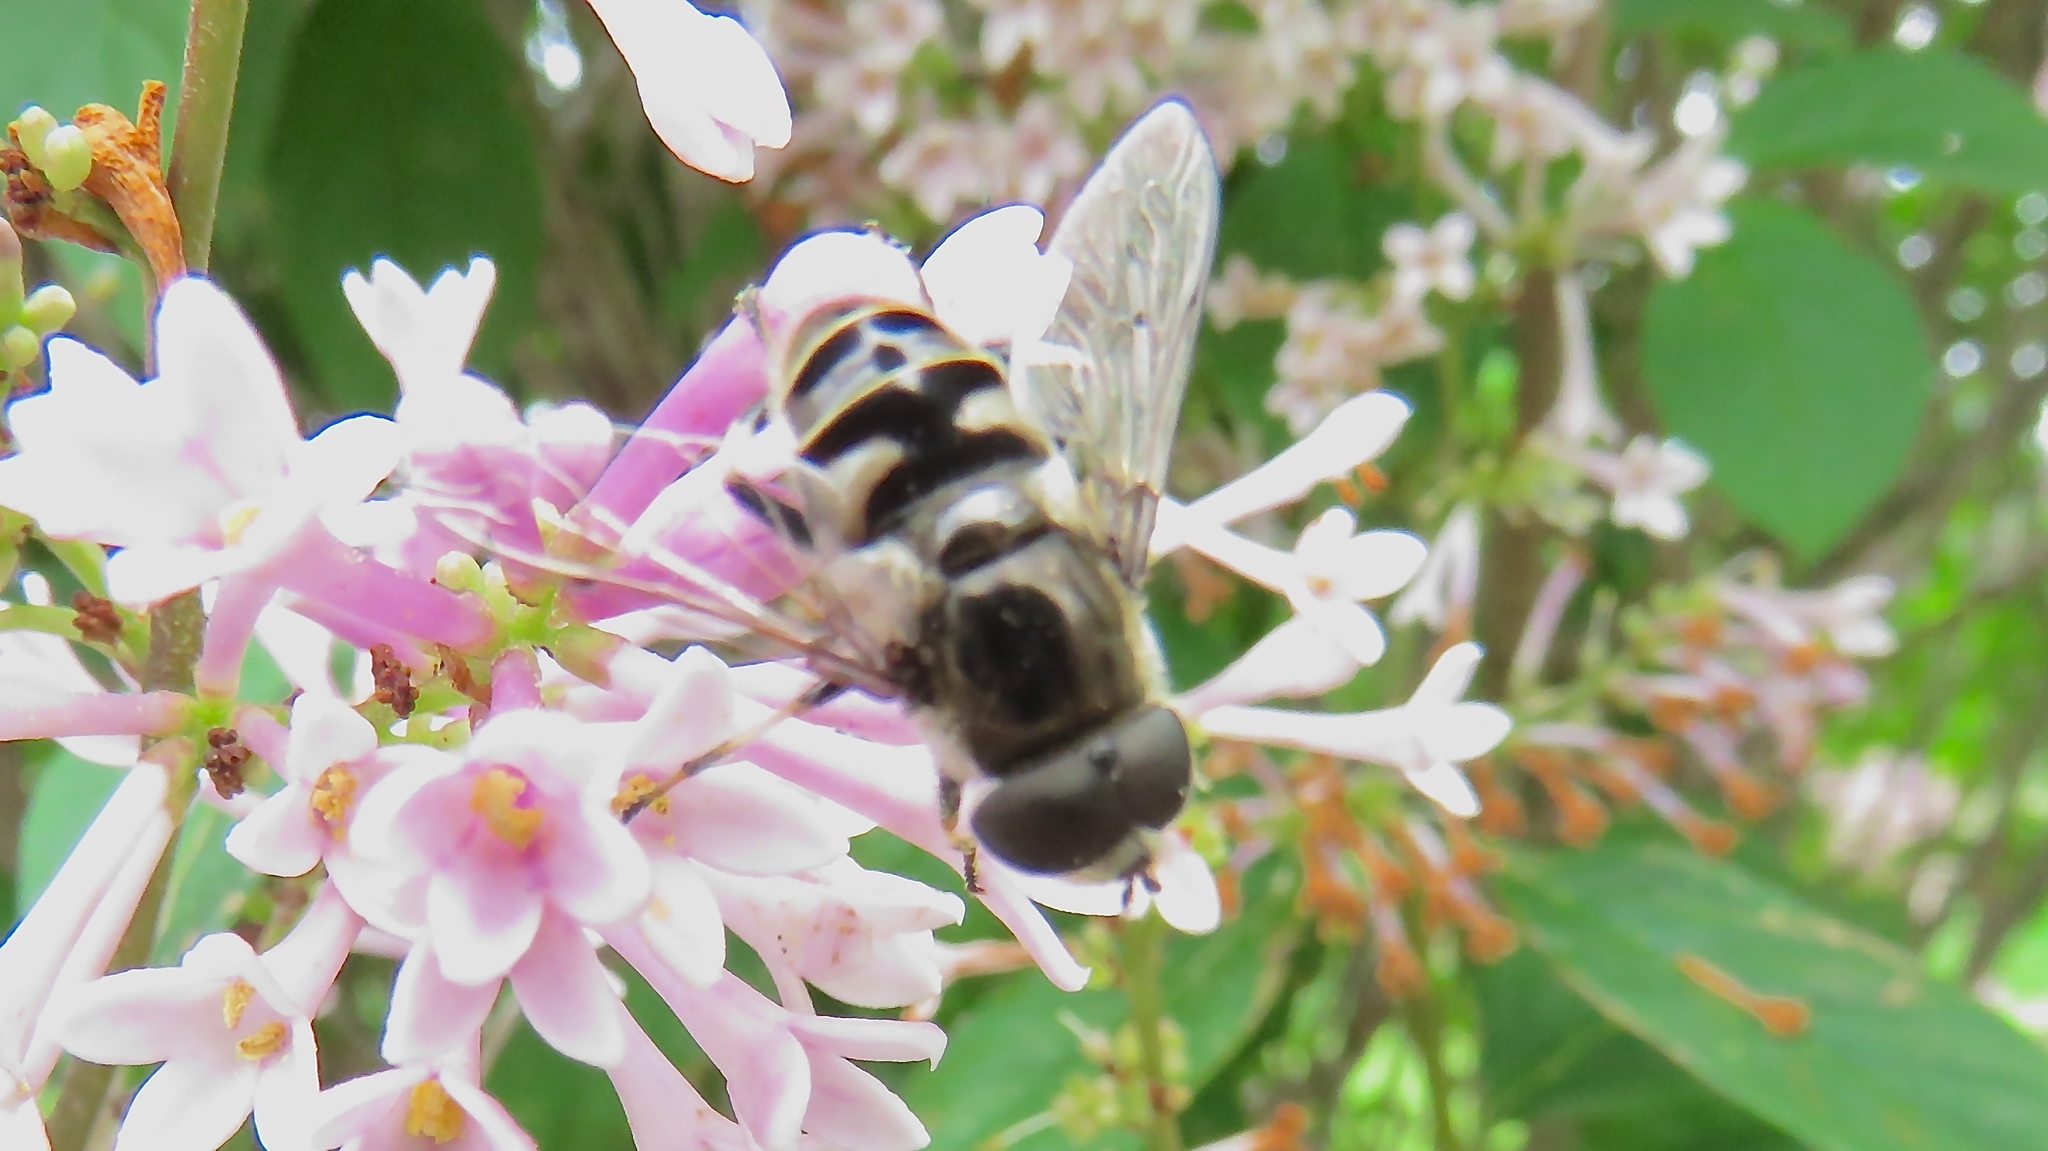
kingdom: Animalia
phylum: Arthropoda
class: Insecta
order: Diptera
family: Syrphidae
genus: Eristalis
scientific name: Eristalis dimidiata
